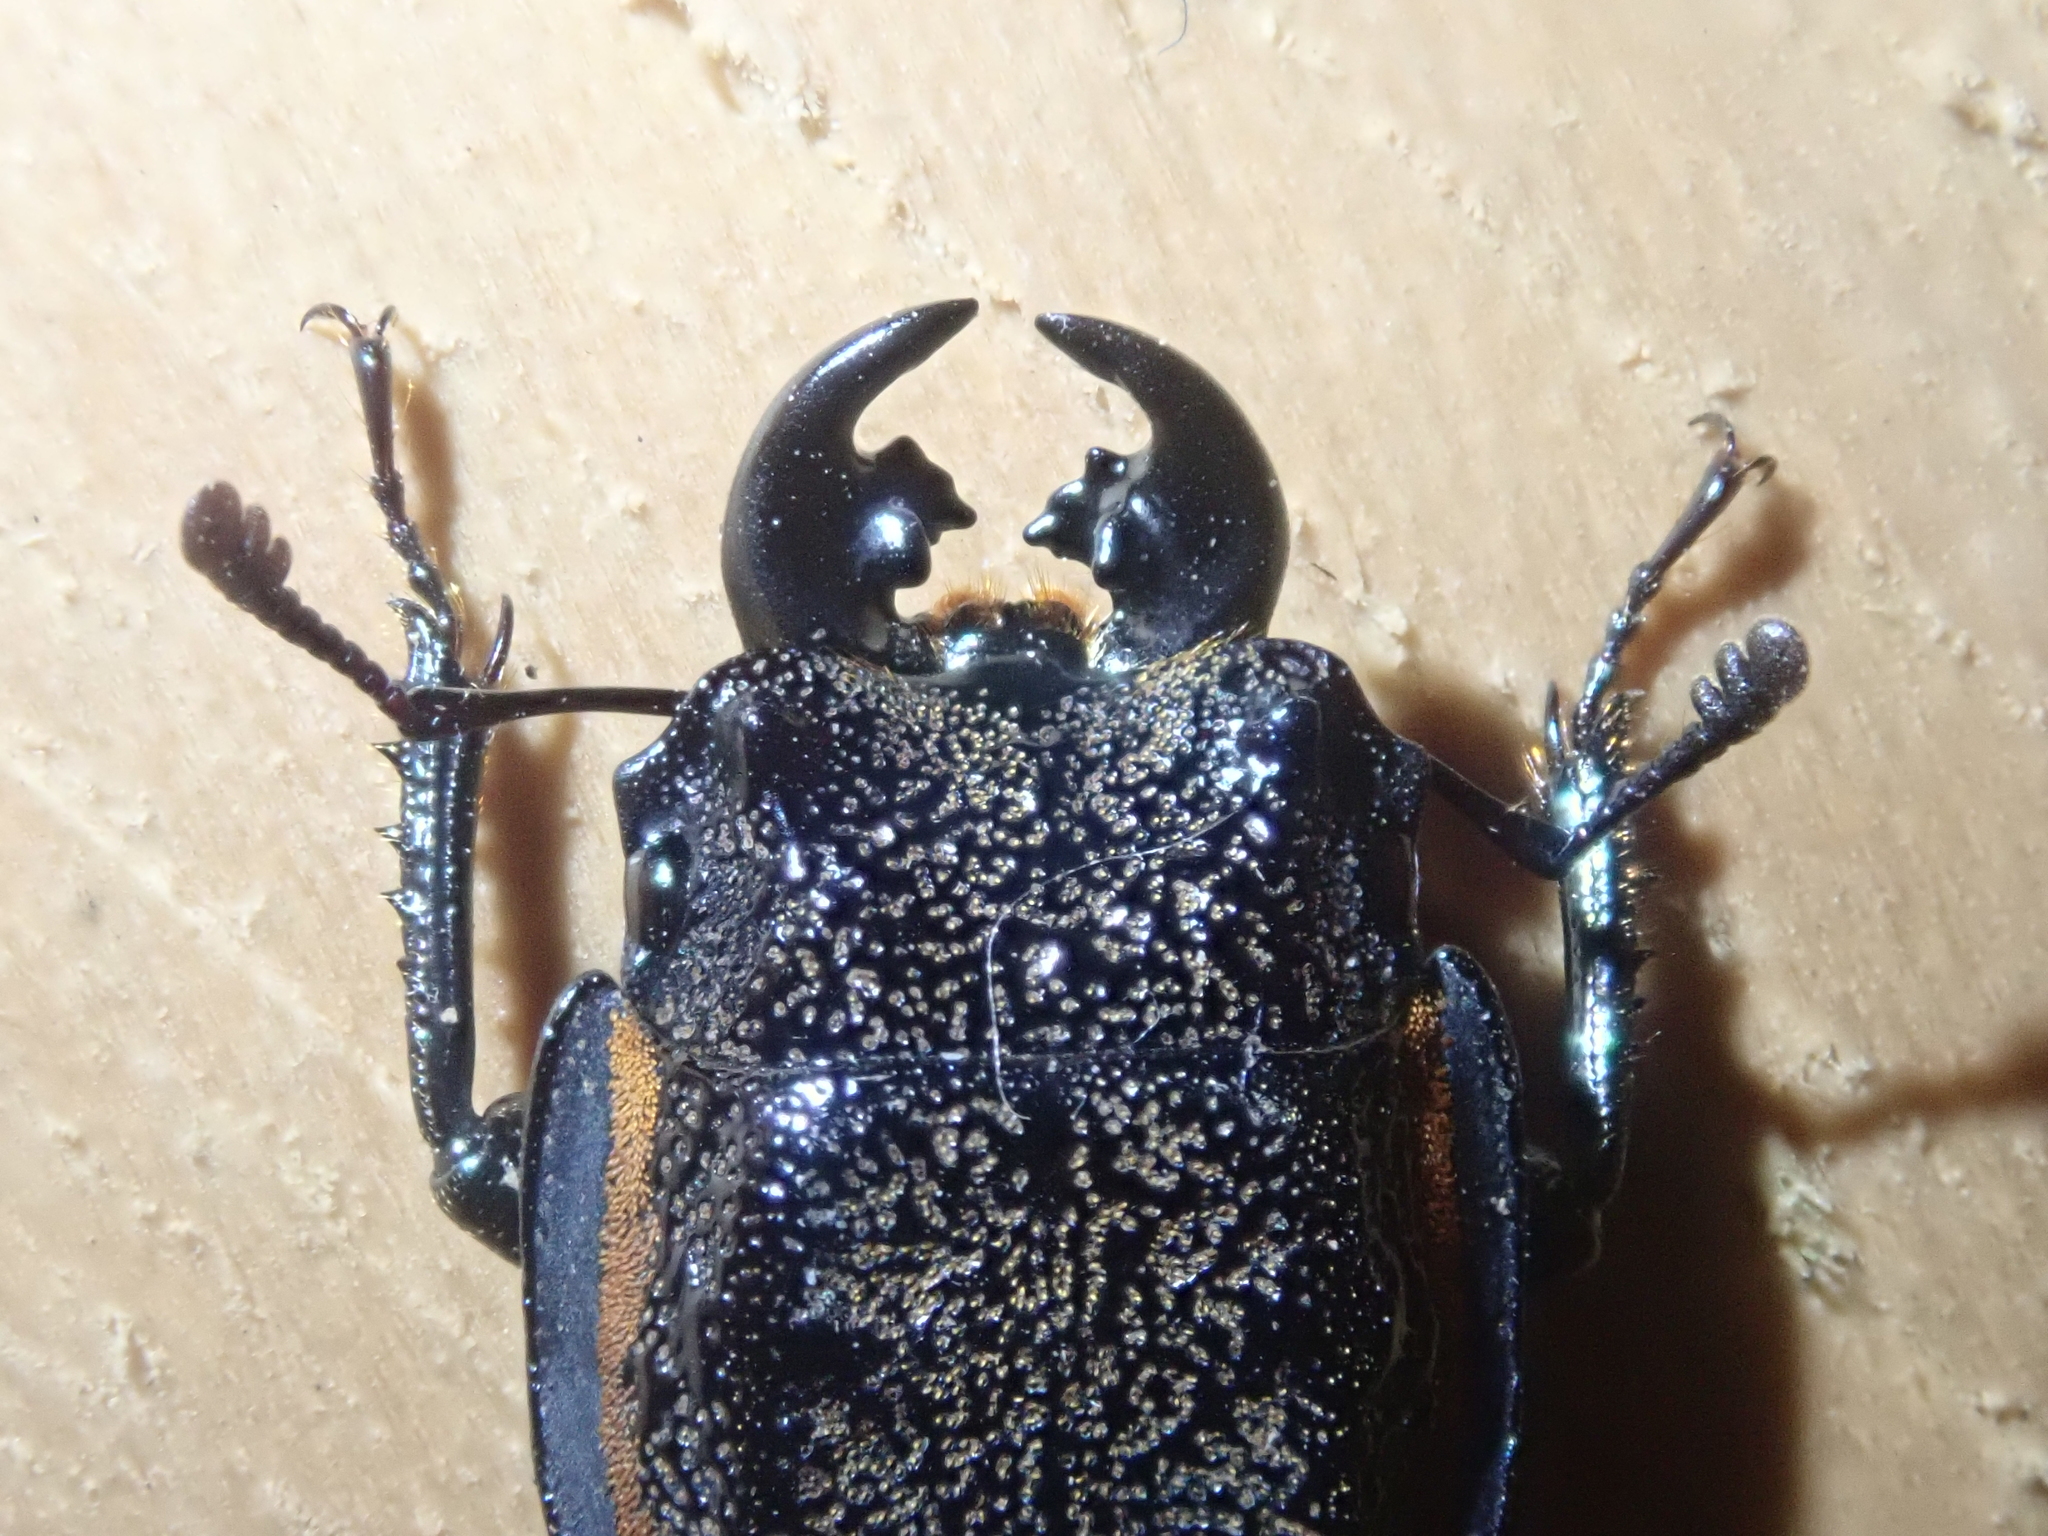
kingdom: Animalia
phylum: Arthropoda
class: Insecta
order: Coleoptera
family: Lucanidae
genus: Erichius
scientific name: Erichius caelatus
